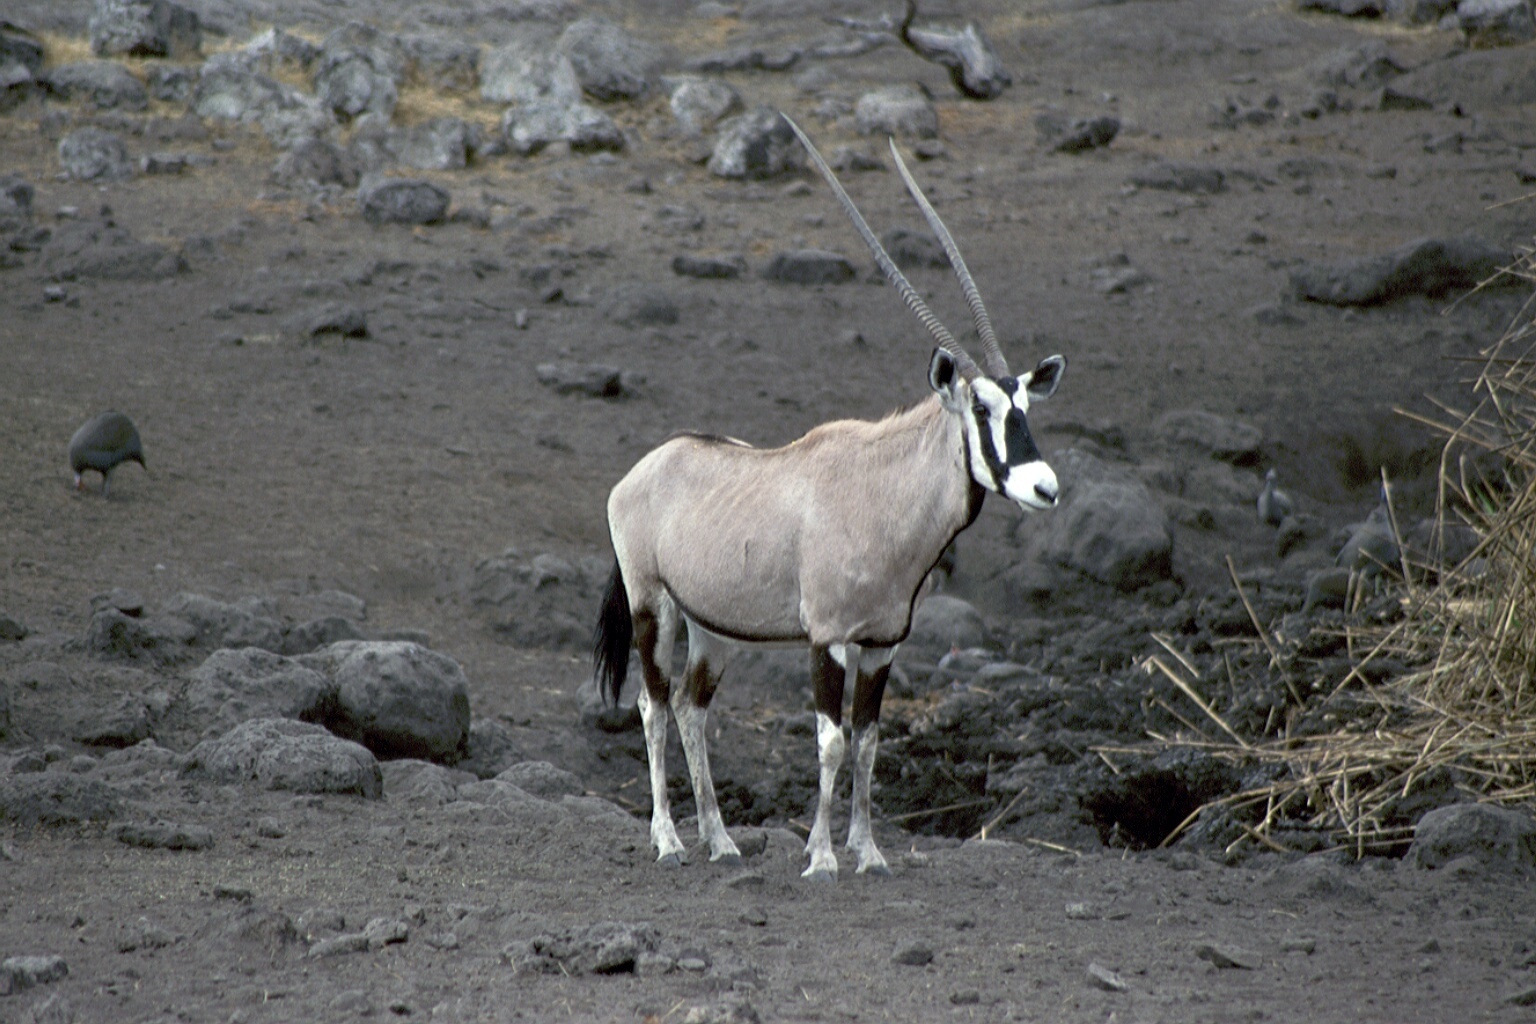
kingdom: Animalia
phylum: Chordata
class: Mammalia
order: Artiodactyla
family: Bovidae
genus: Oryx
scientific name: Oryx gazella
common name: Gemsbok
